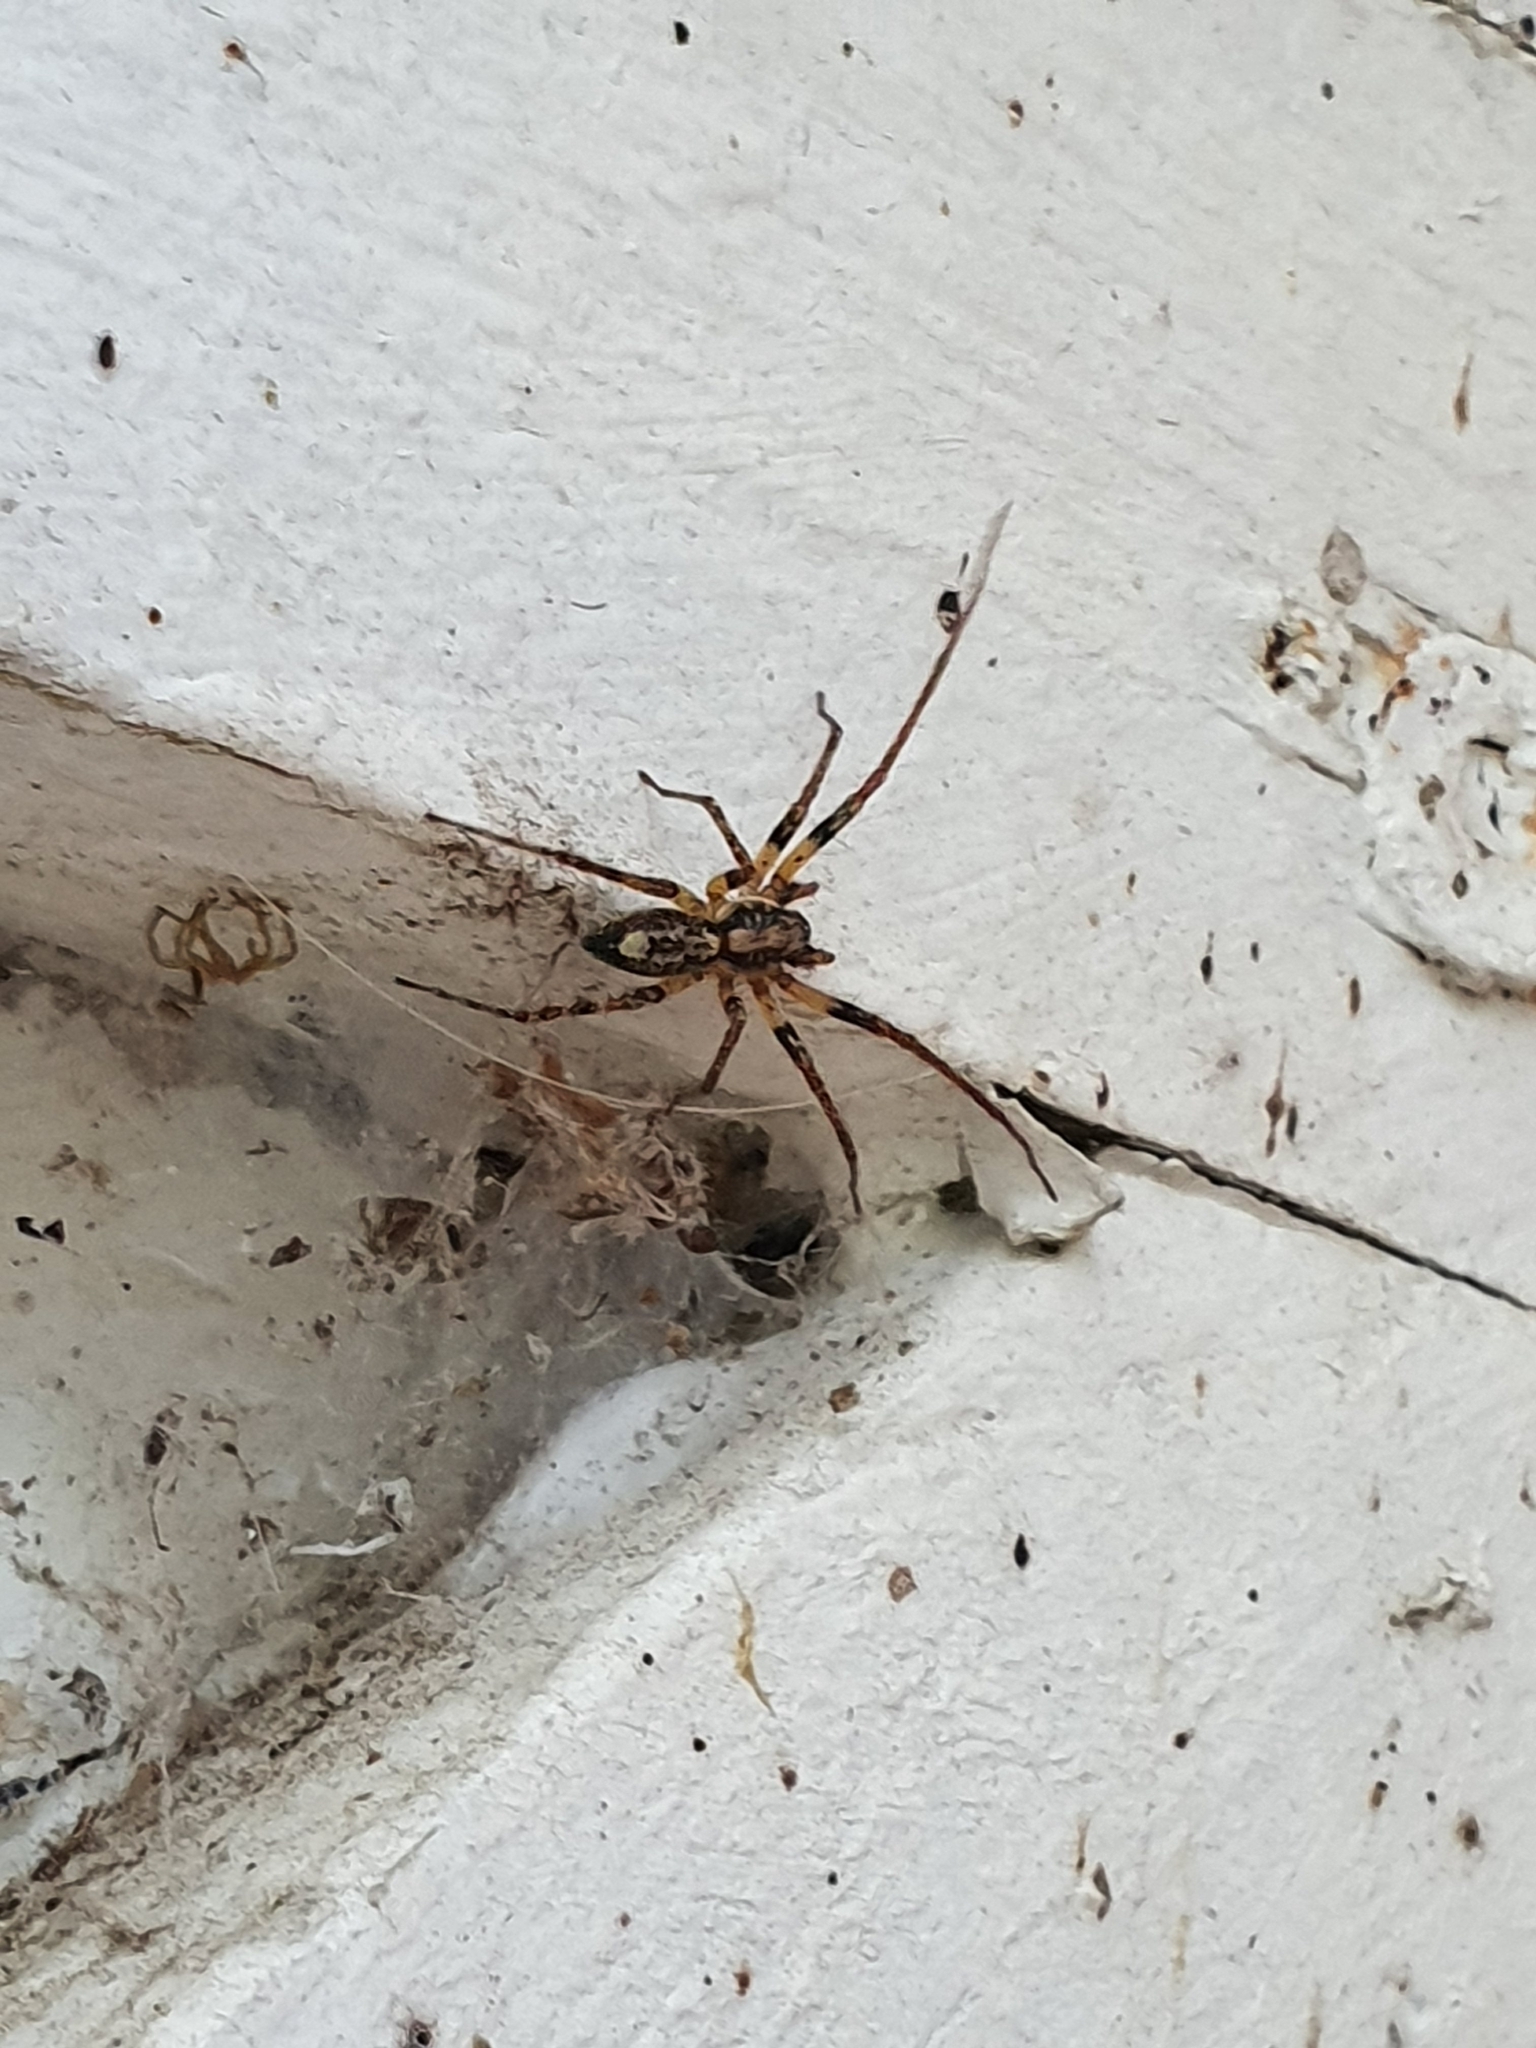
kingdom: Animalia
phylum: Arthropoda
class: Arachnida
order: Araneae
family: Anyphaenidae
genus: Anyphaena
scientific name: Anyphaena accentuata
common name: Buzzing spider
